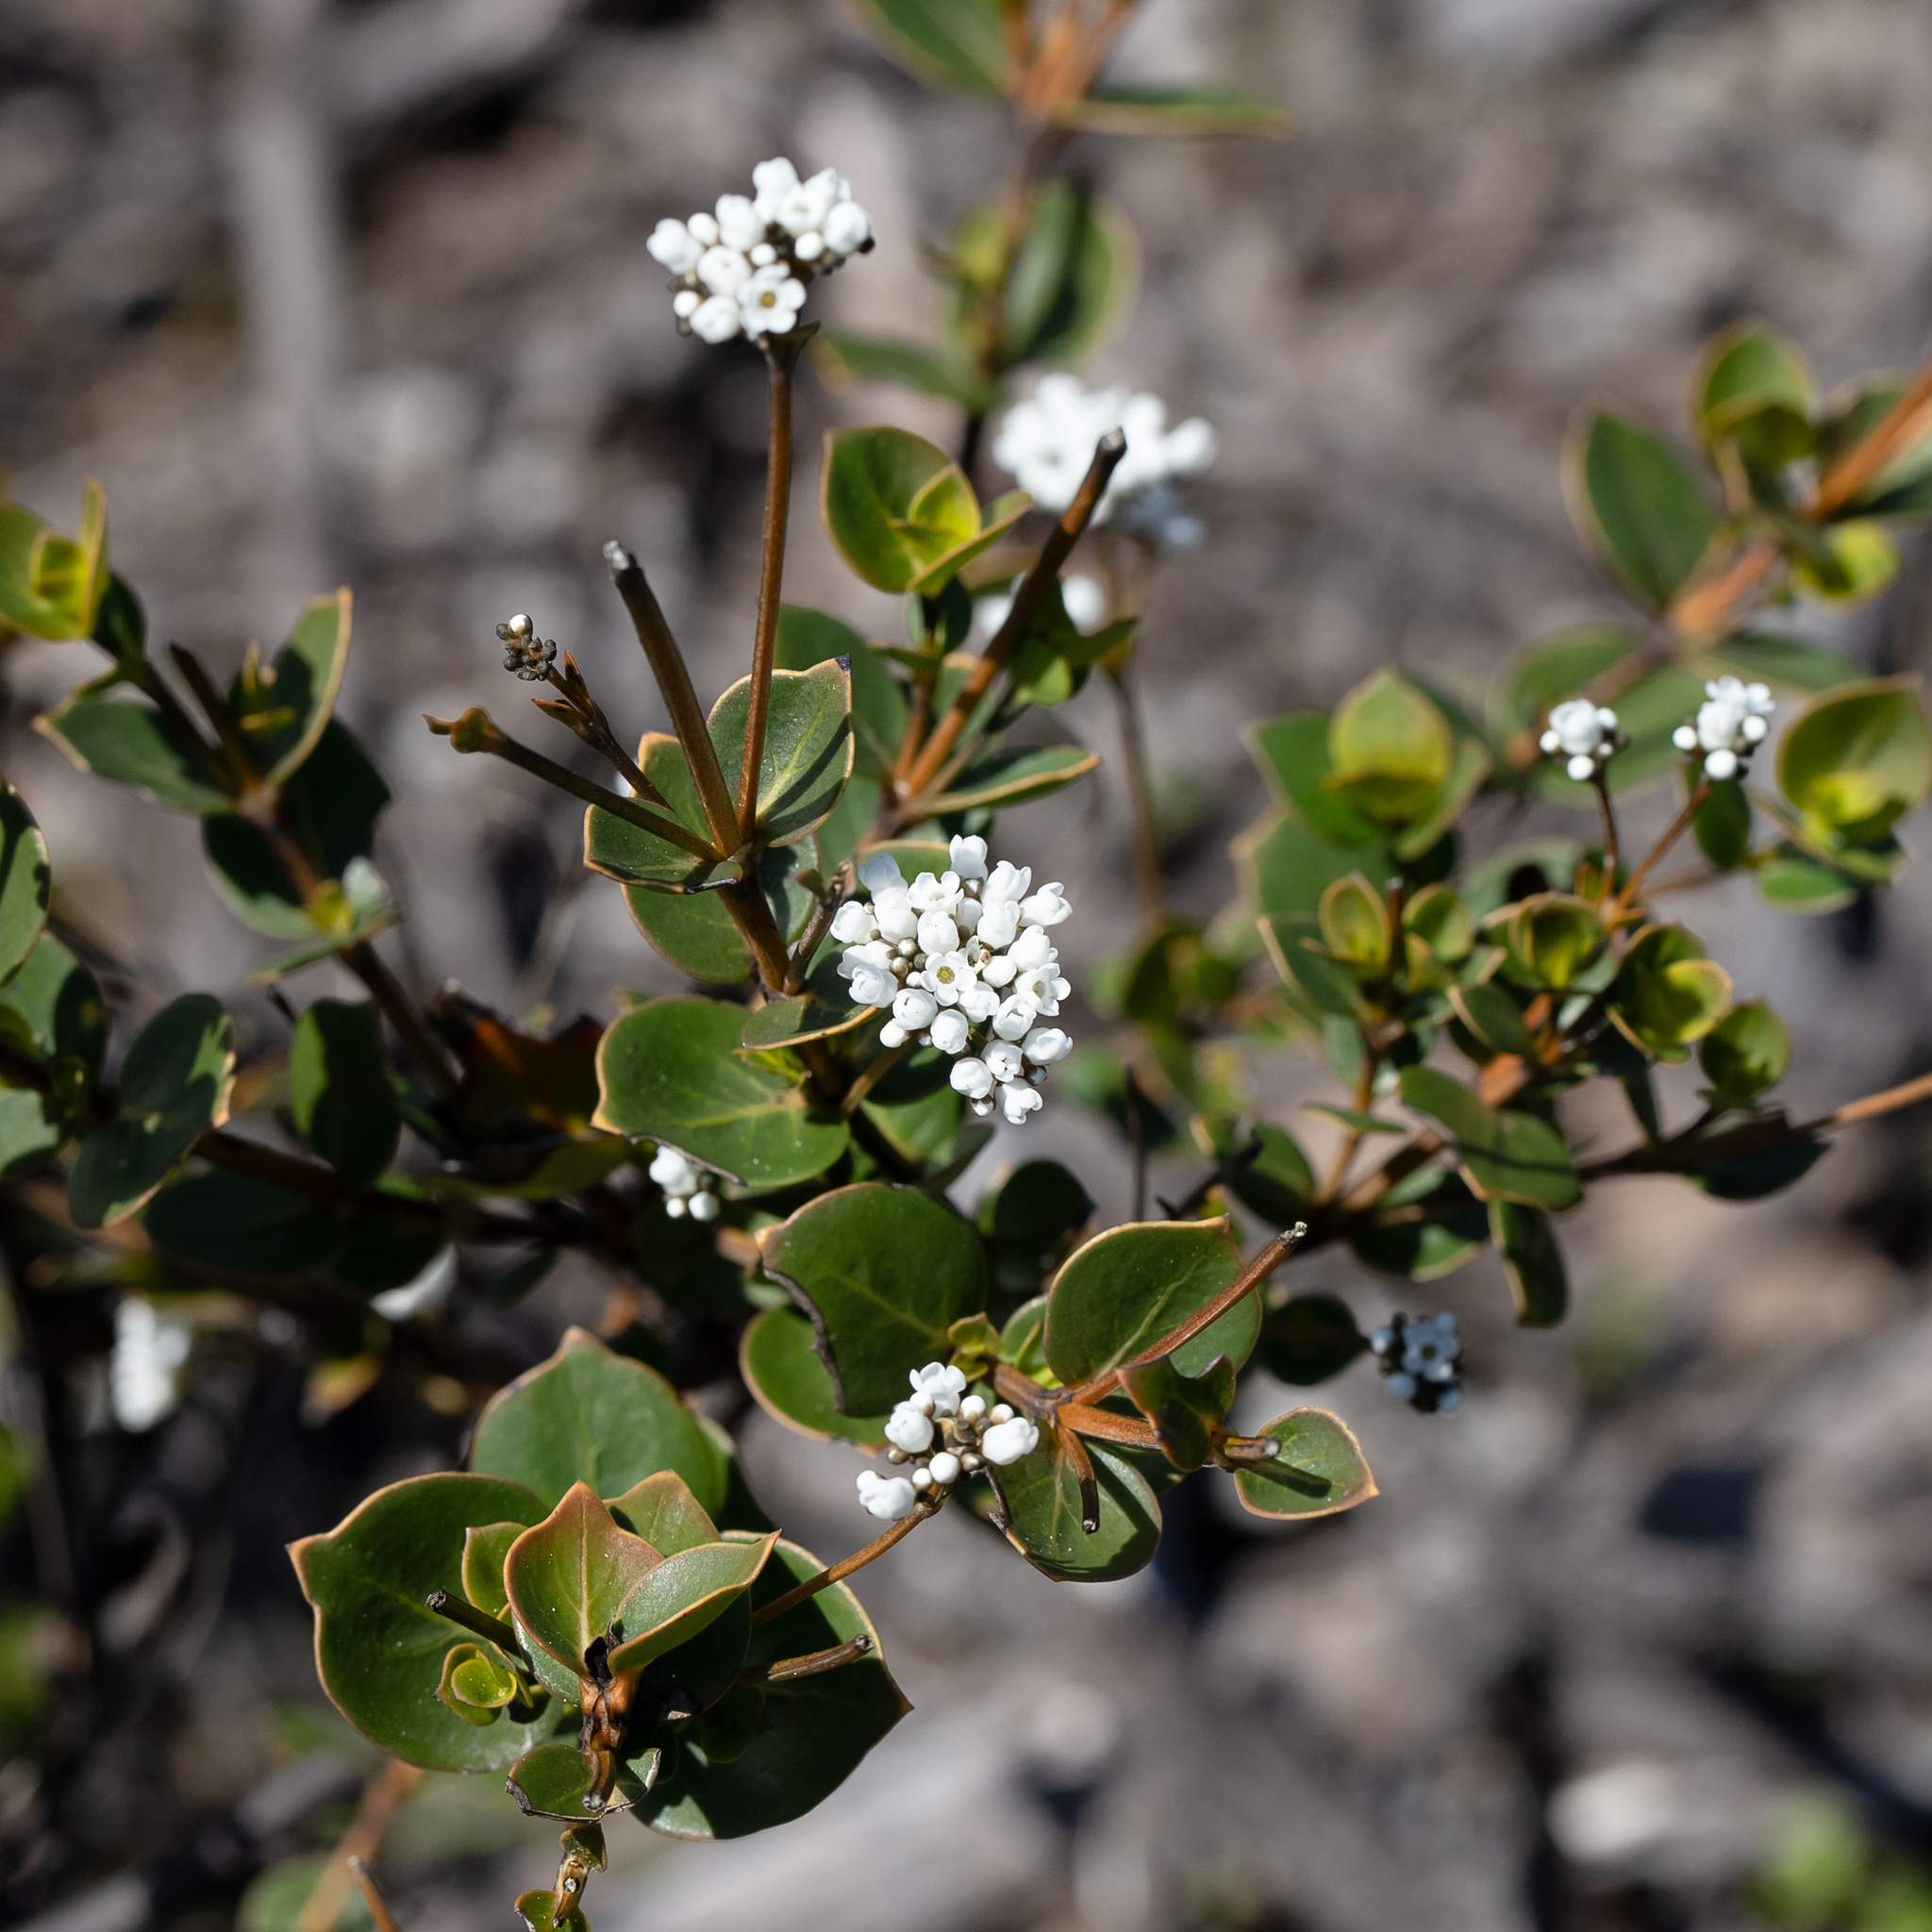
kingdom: Plantae
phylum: Tracheophyta
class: Magnoliopsida
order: Gentianales
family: Loganiaceae
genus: Logania
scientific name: Logania ovata
